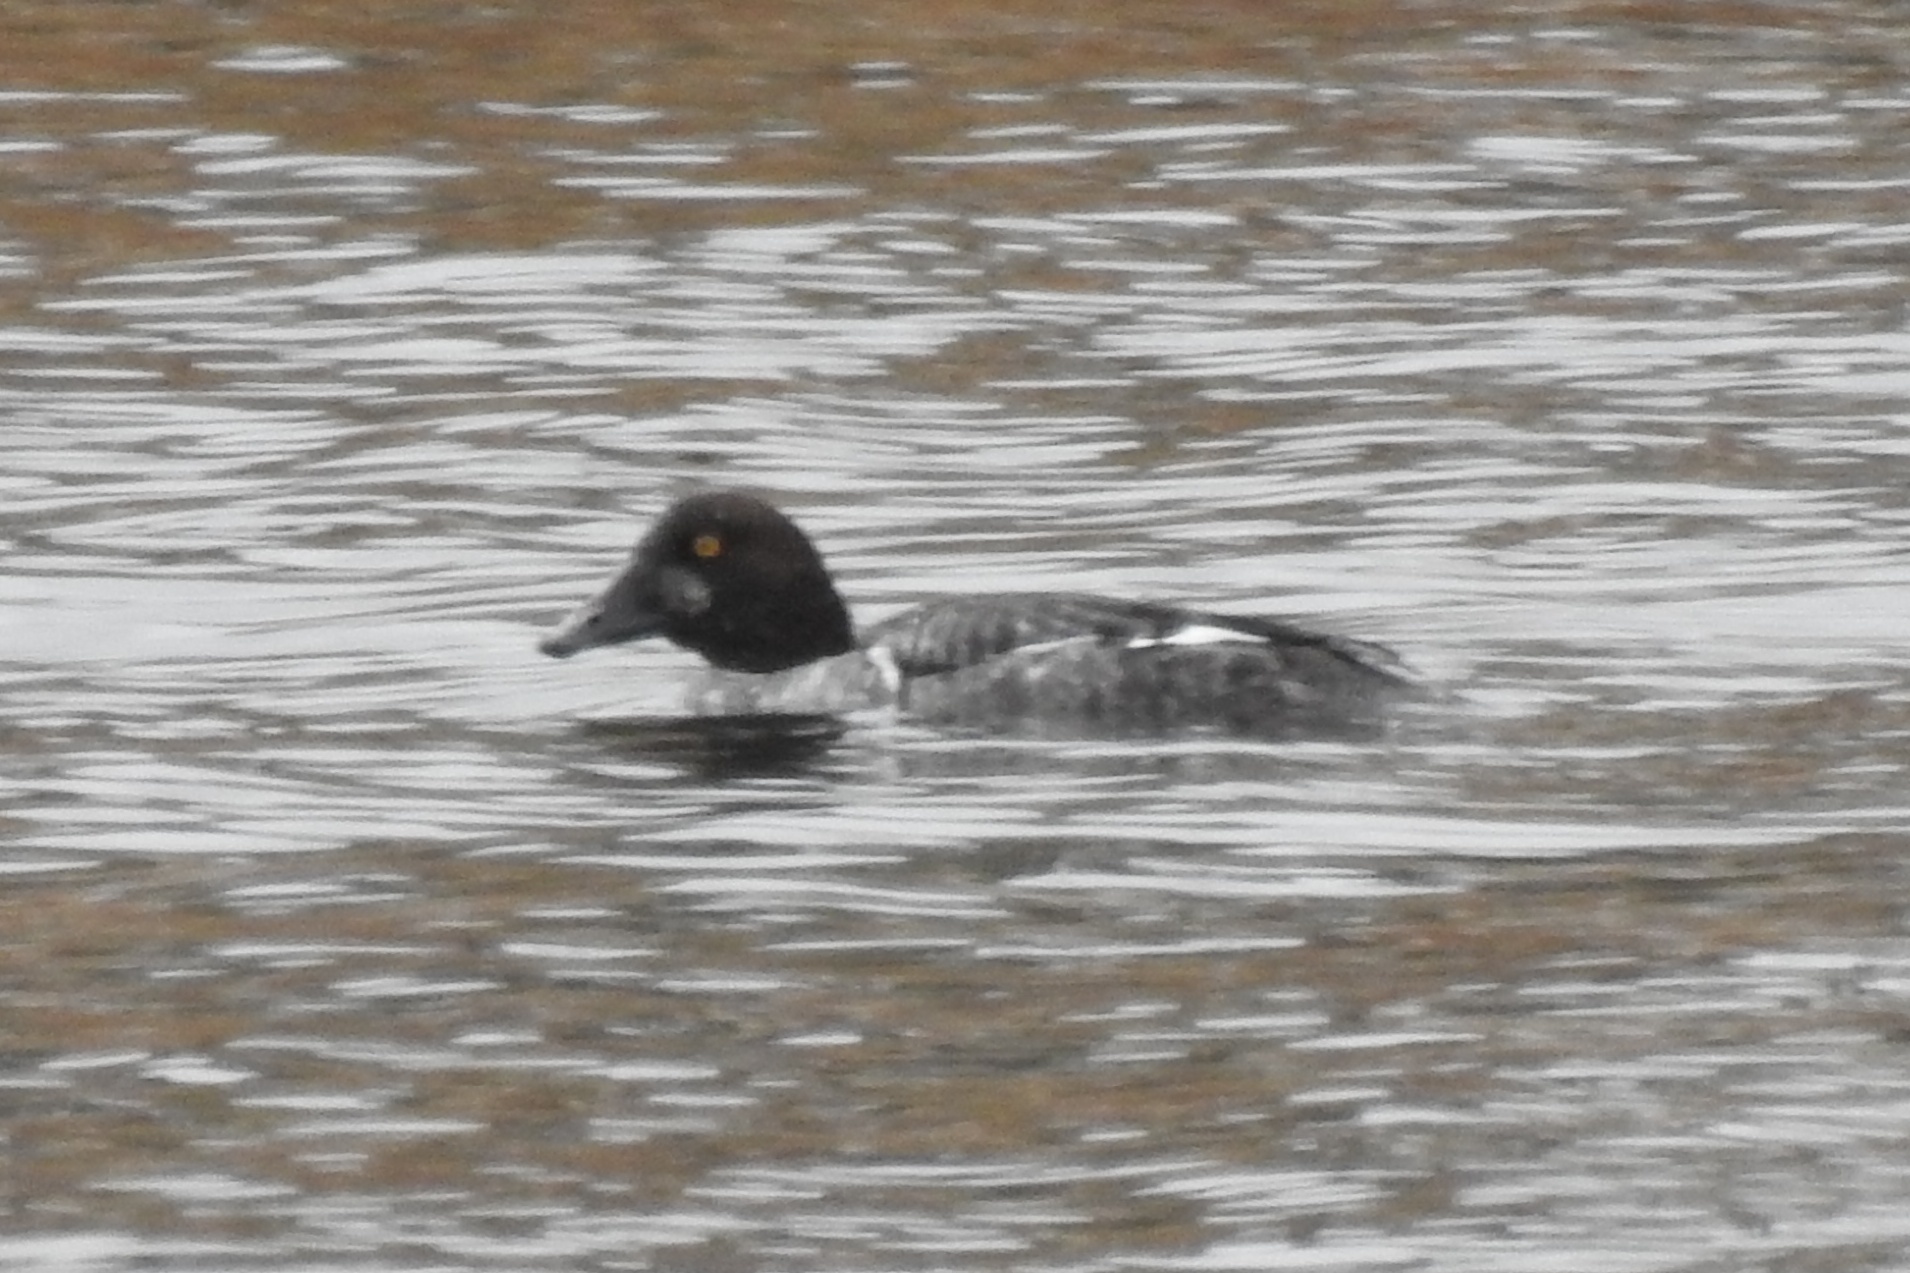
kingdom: Animalia
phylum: Chordata
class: Aves
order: Anseriformes
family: Anatidae
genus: Bucephala
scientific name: Bucephala clangula
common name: Common goldeneye
